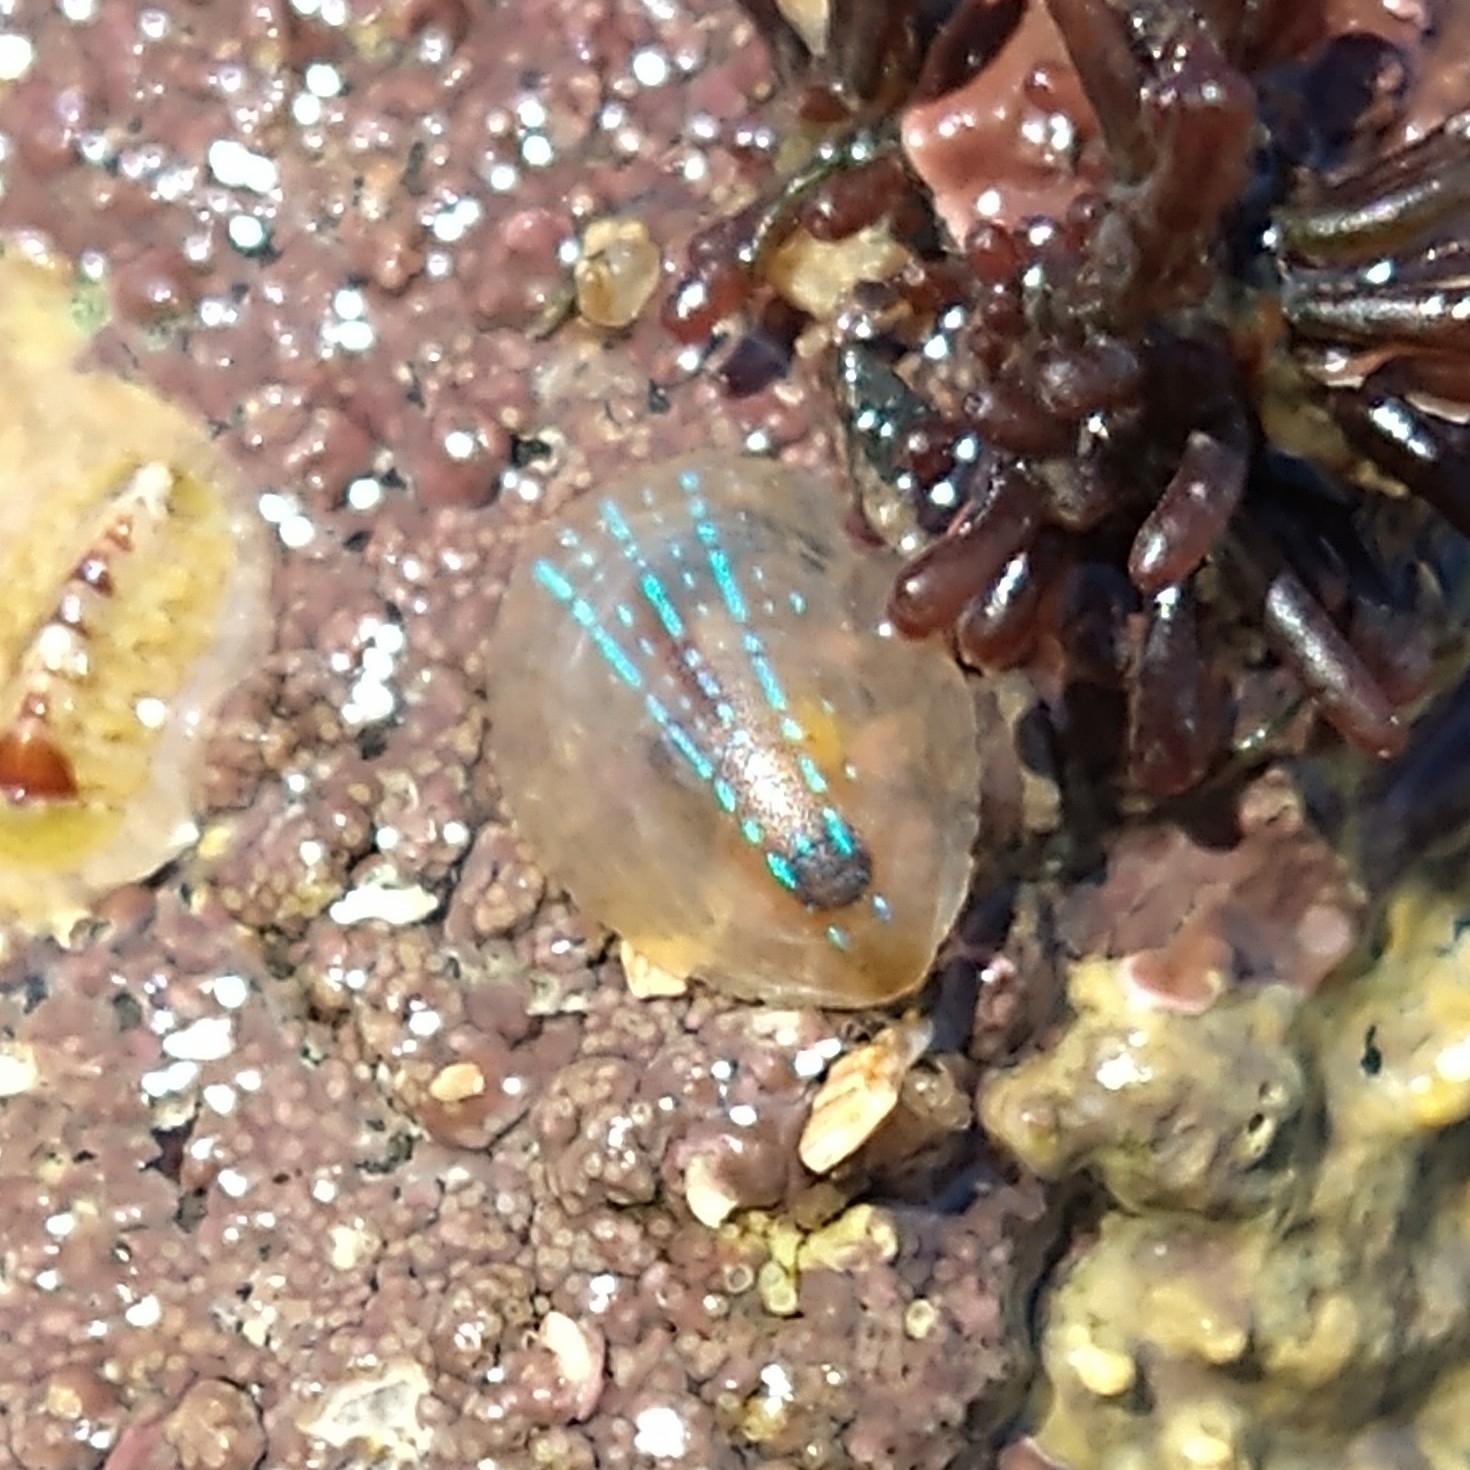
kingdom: Animalia
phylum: Mollusca
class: Gastropoda
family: Patellidae
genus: Patella
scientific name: Patella pellucida
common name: Blue-rayed limpet
